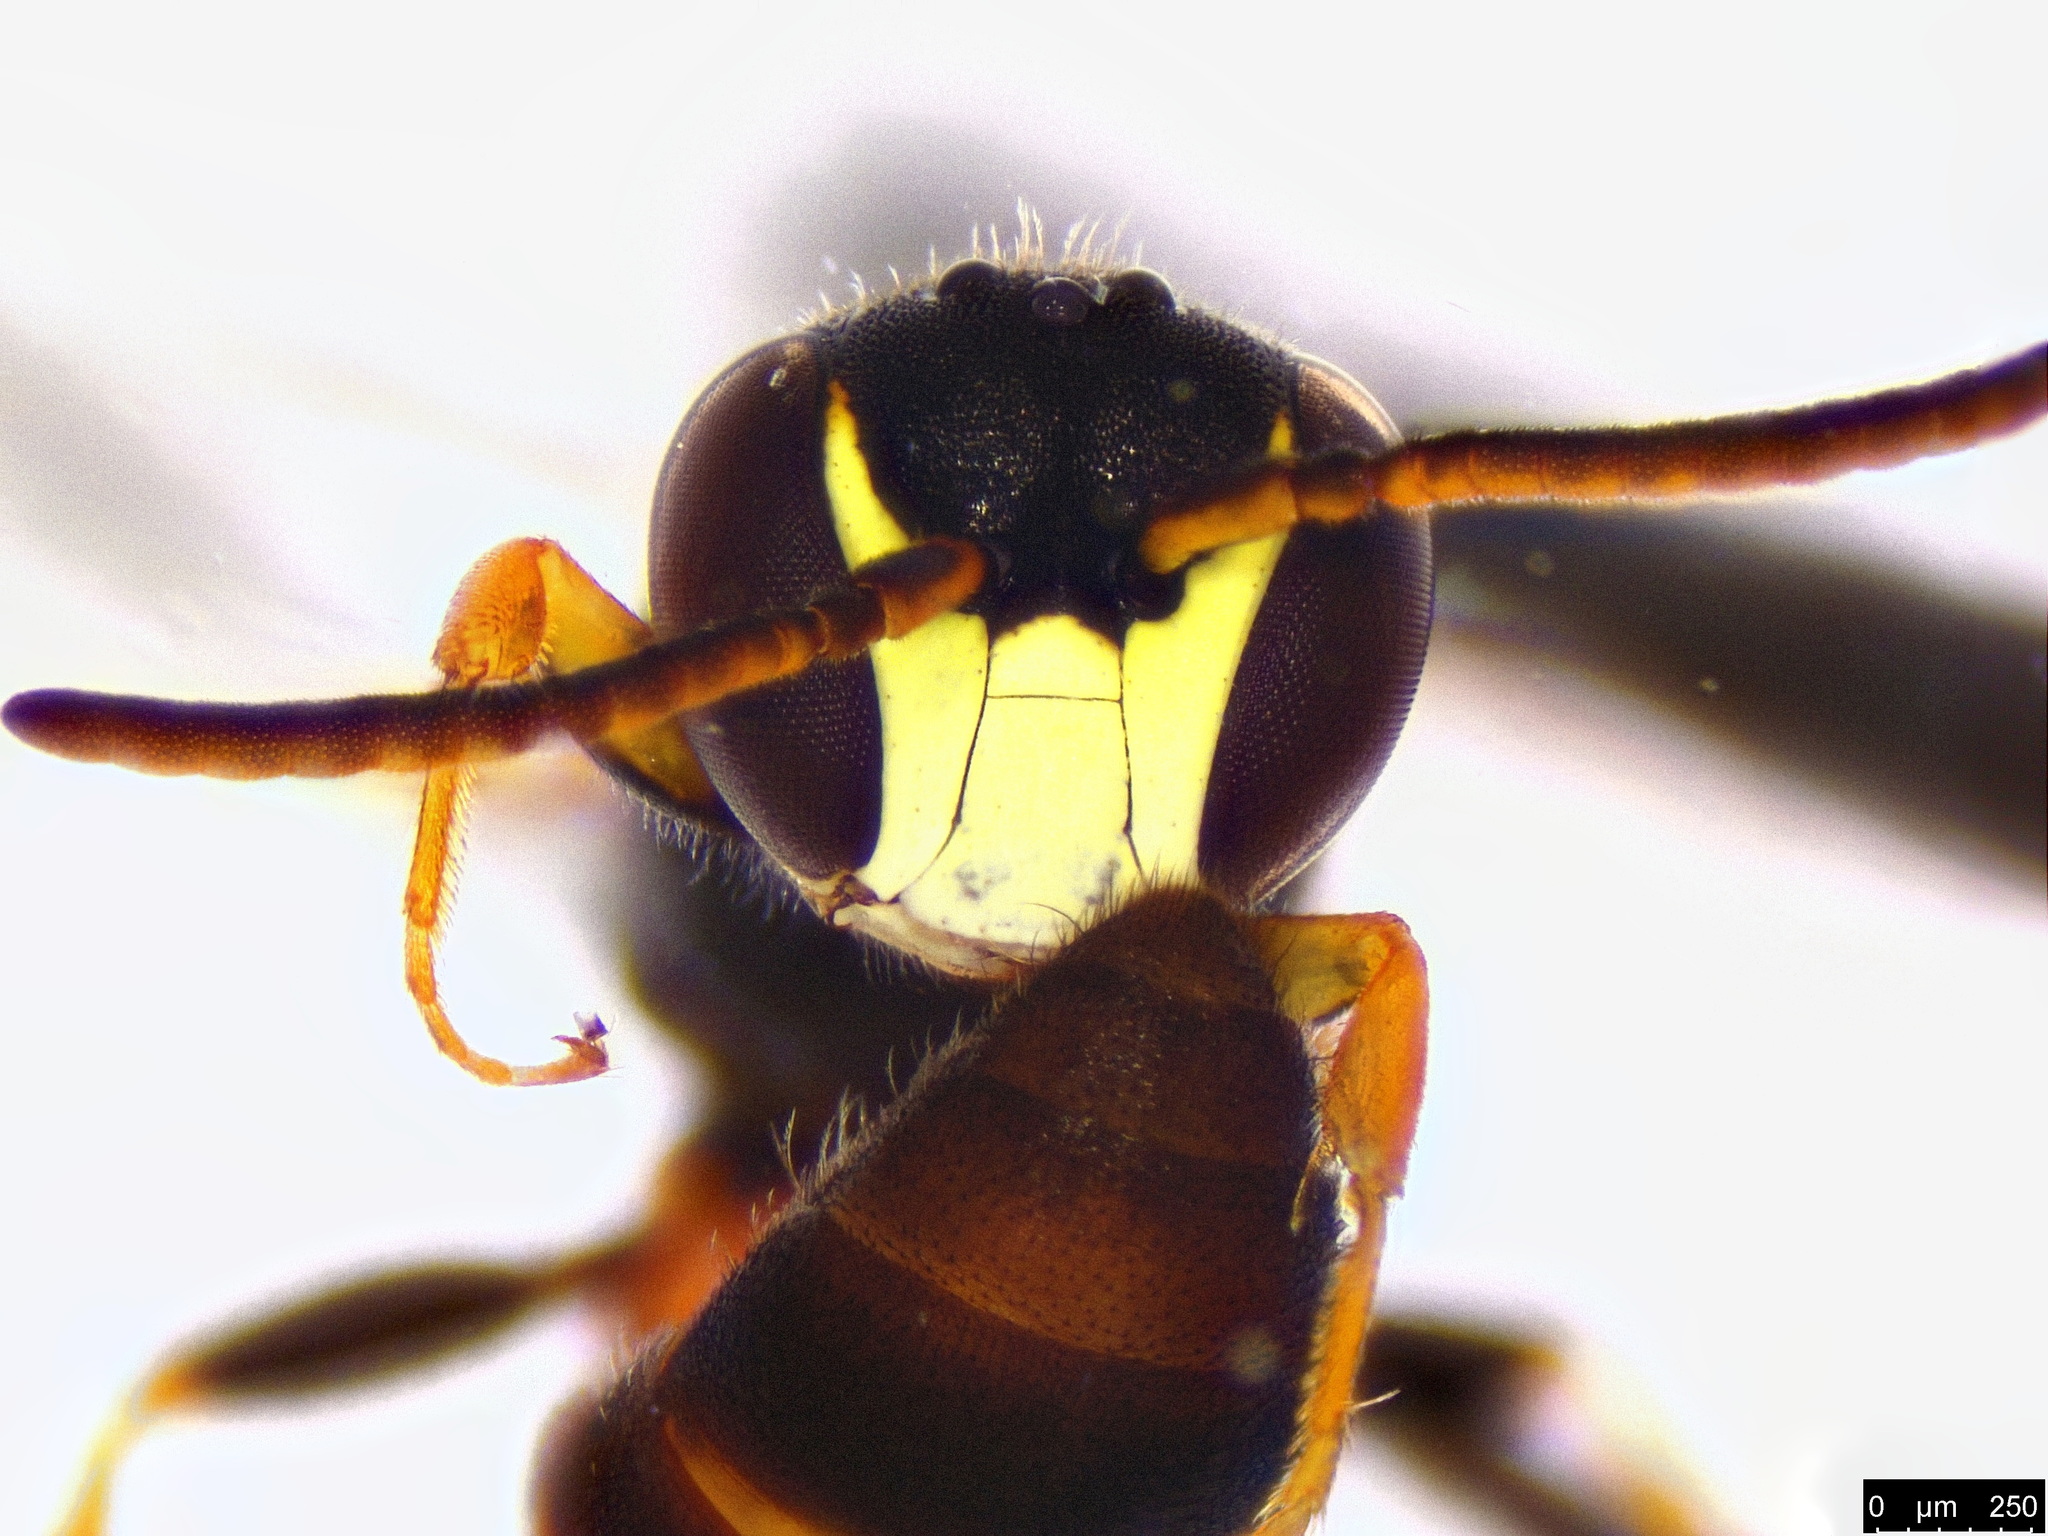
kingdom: Animalia
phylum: Arthropoda
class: Insecta
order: Hymenoptera
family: Colletidae
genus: Hylaeus
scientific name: Hylaeus littleri
